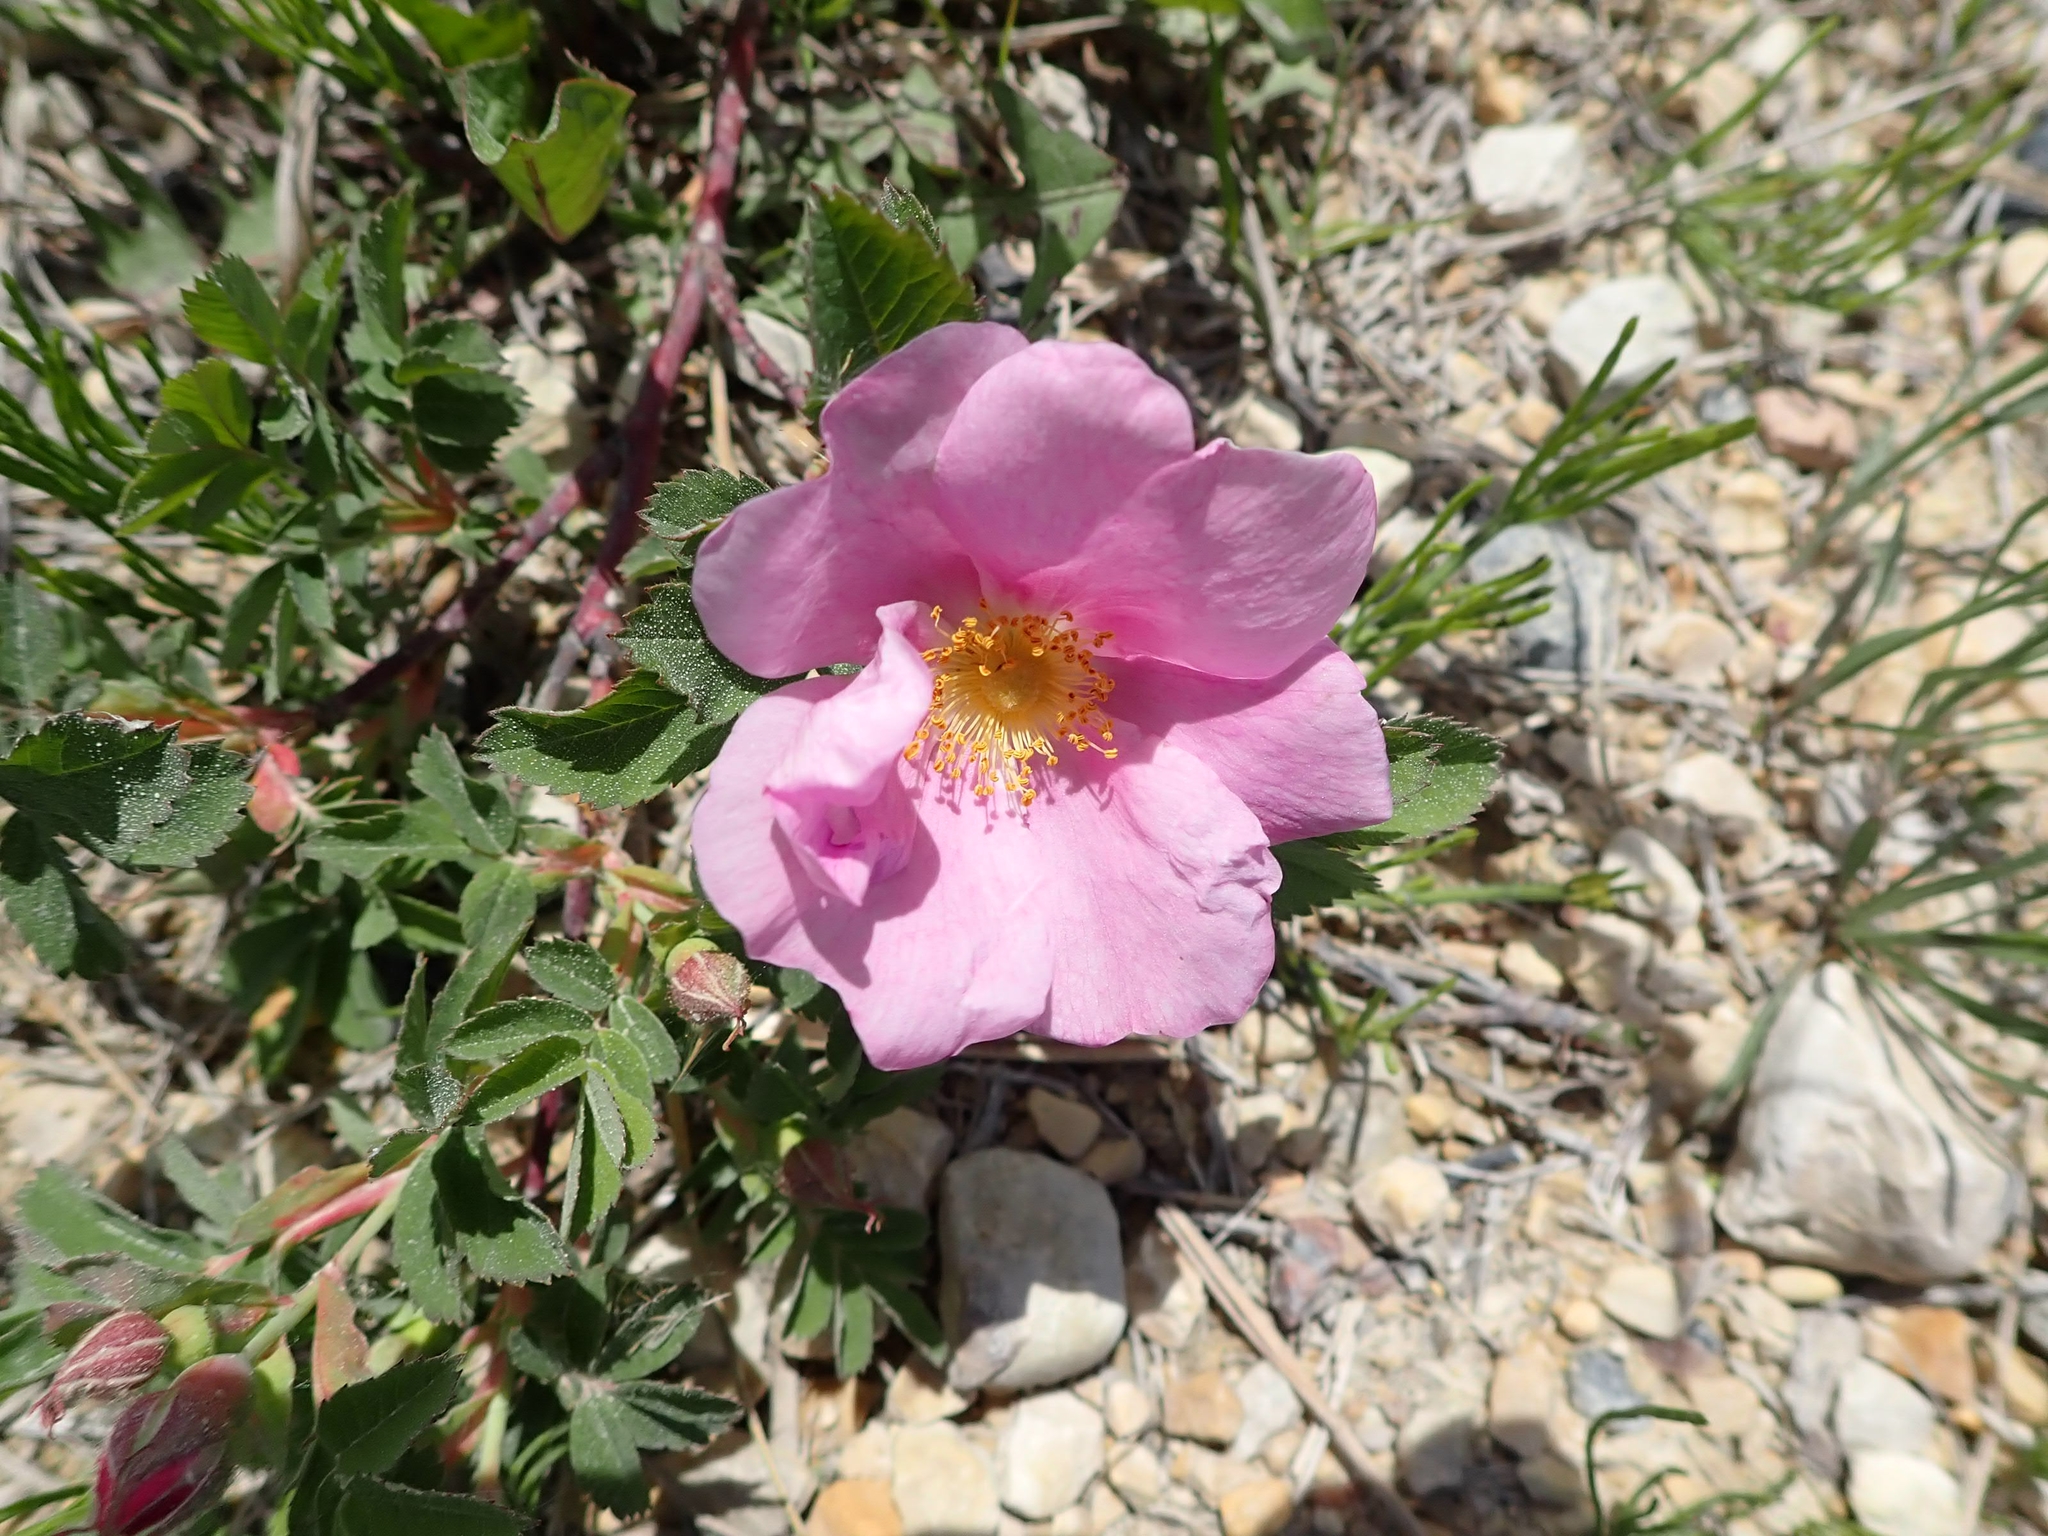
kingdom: Plantae
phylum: Tracheophyta
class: Magnoliopsida
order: Rosales
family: Rosaceae
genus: Rosa
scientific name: Rosa arkansana
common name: Prairie rose
